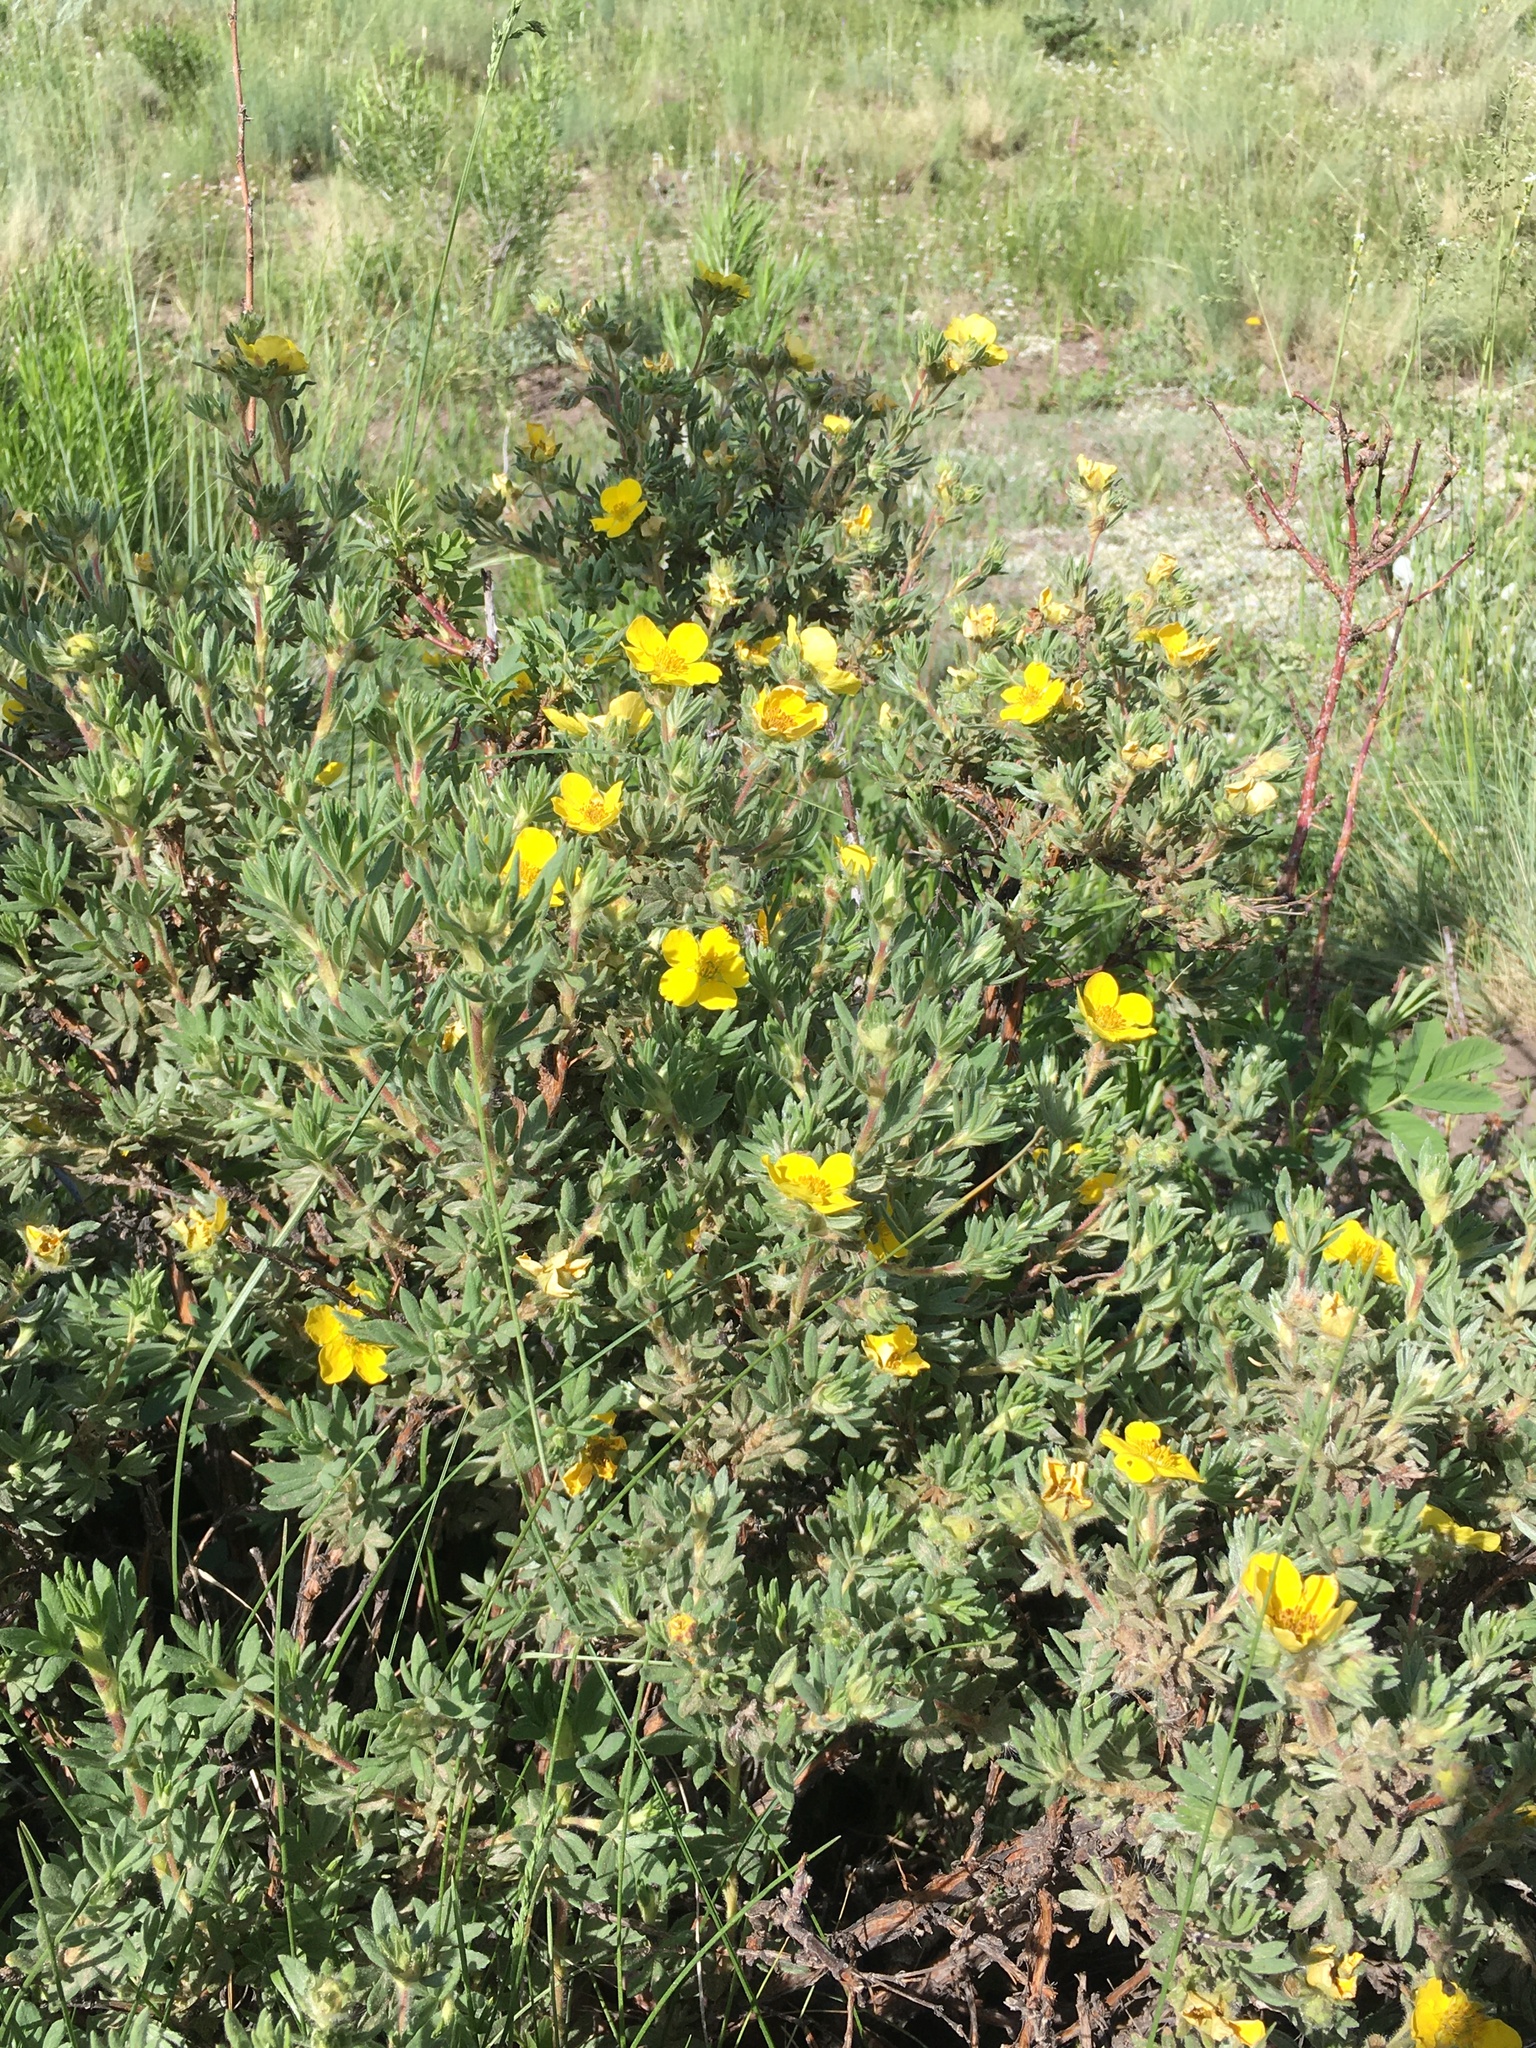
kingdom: Plantae
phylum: Tracheophyta
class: Magnoliopsida
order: Rosales
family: Rosaceae
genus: Dasiphora
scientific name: Dasiphora fruticosa
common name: Shrubby cinquefoil
